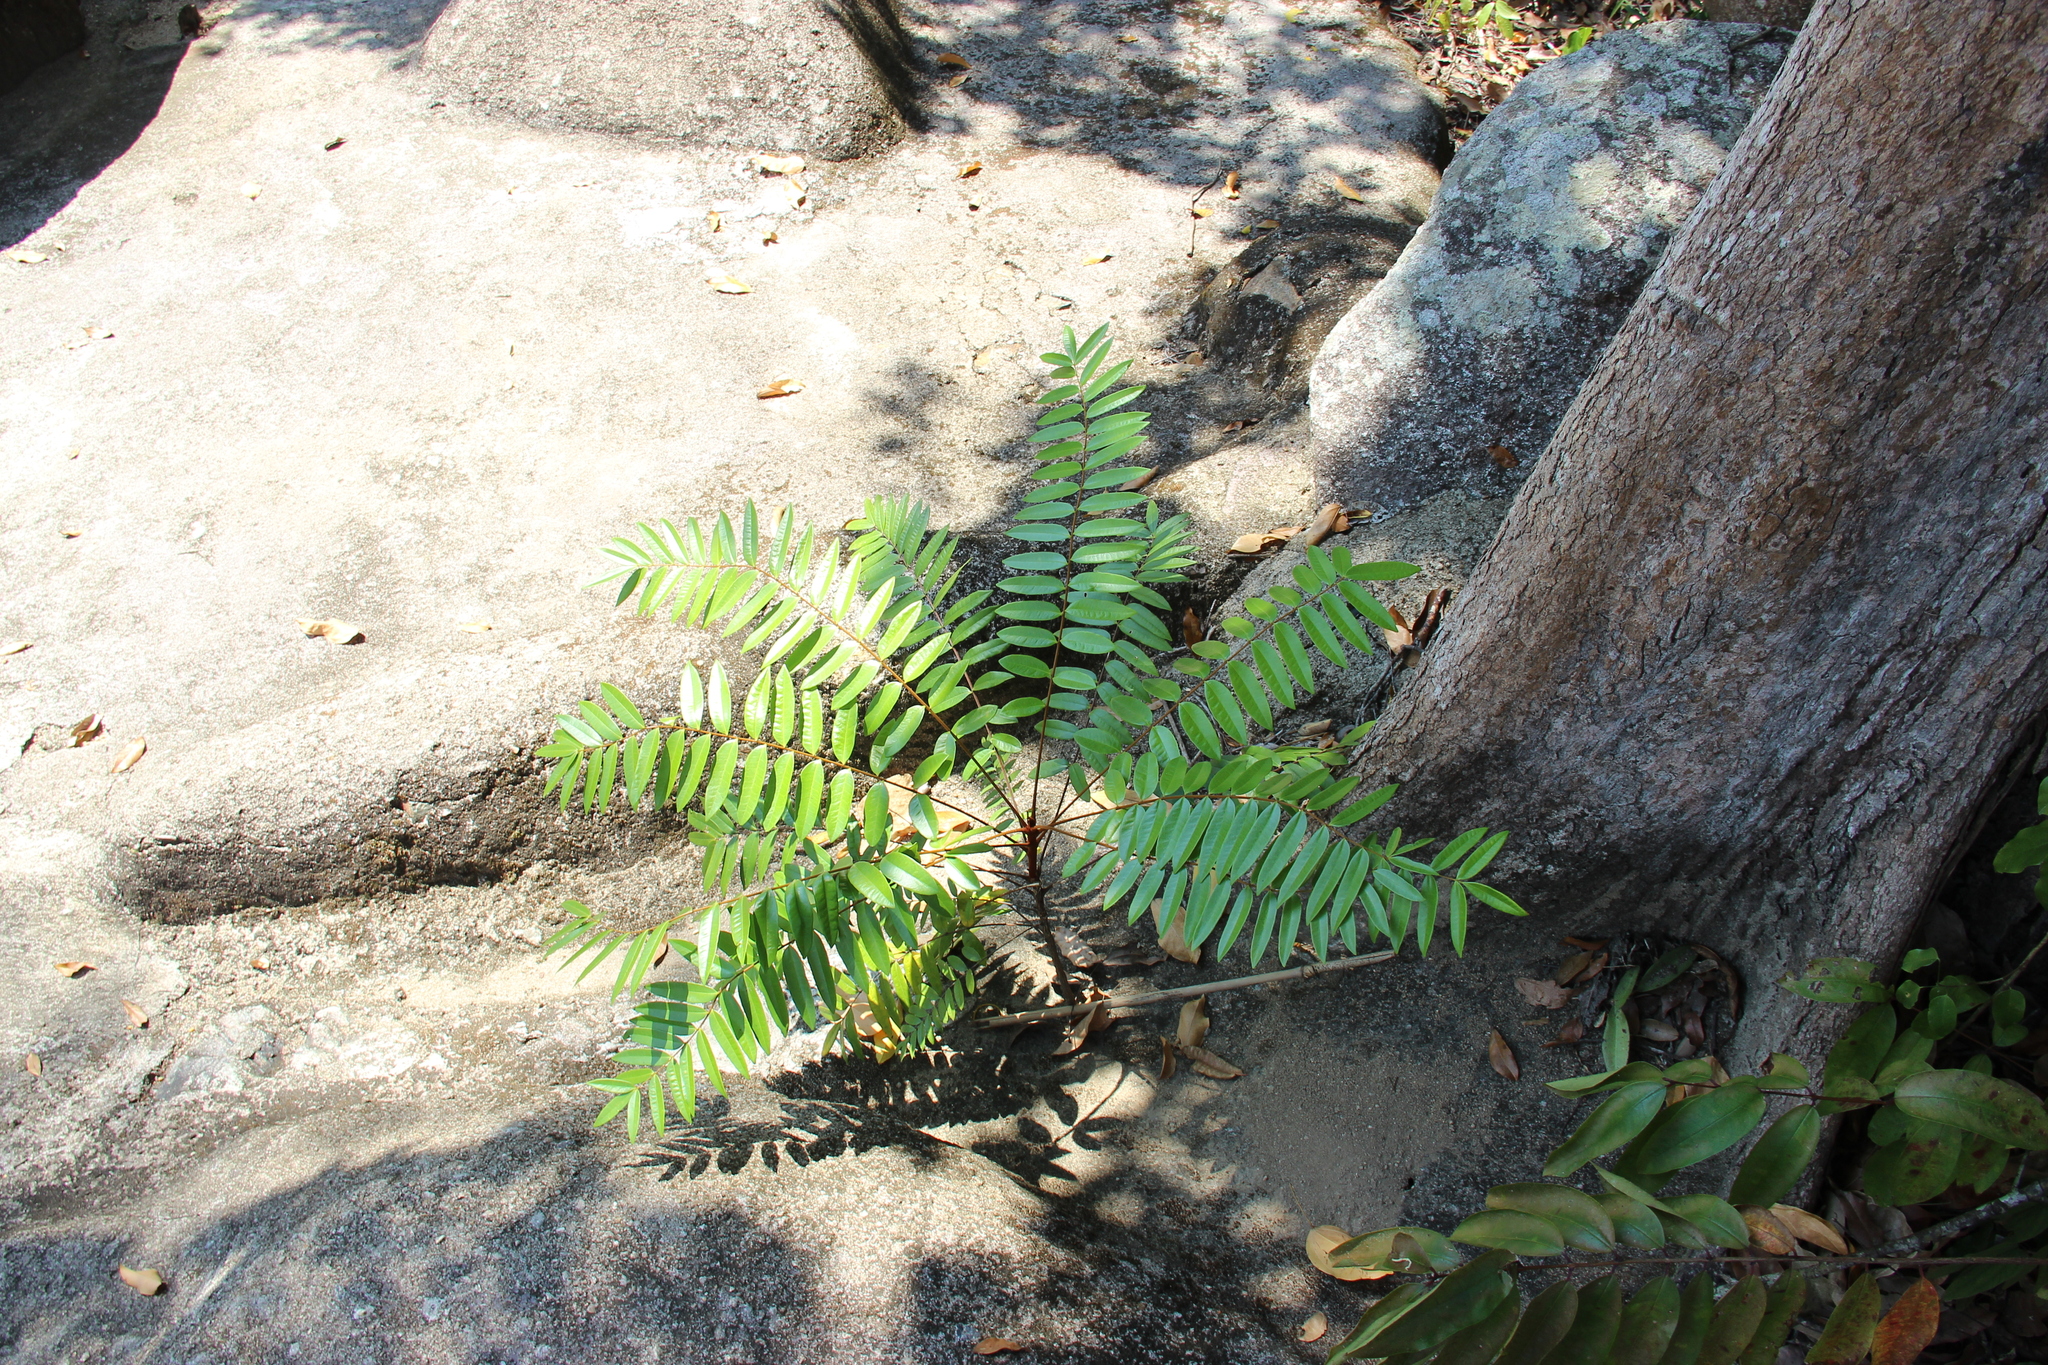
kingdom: Plantae
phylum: Tracheophyta
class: Magnoliopsida
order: Sapindales
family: Simaroubaceae
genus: Eurycoma
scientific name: Eurycoma longifolia
